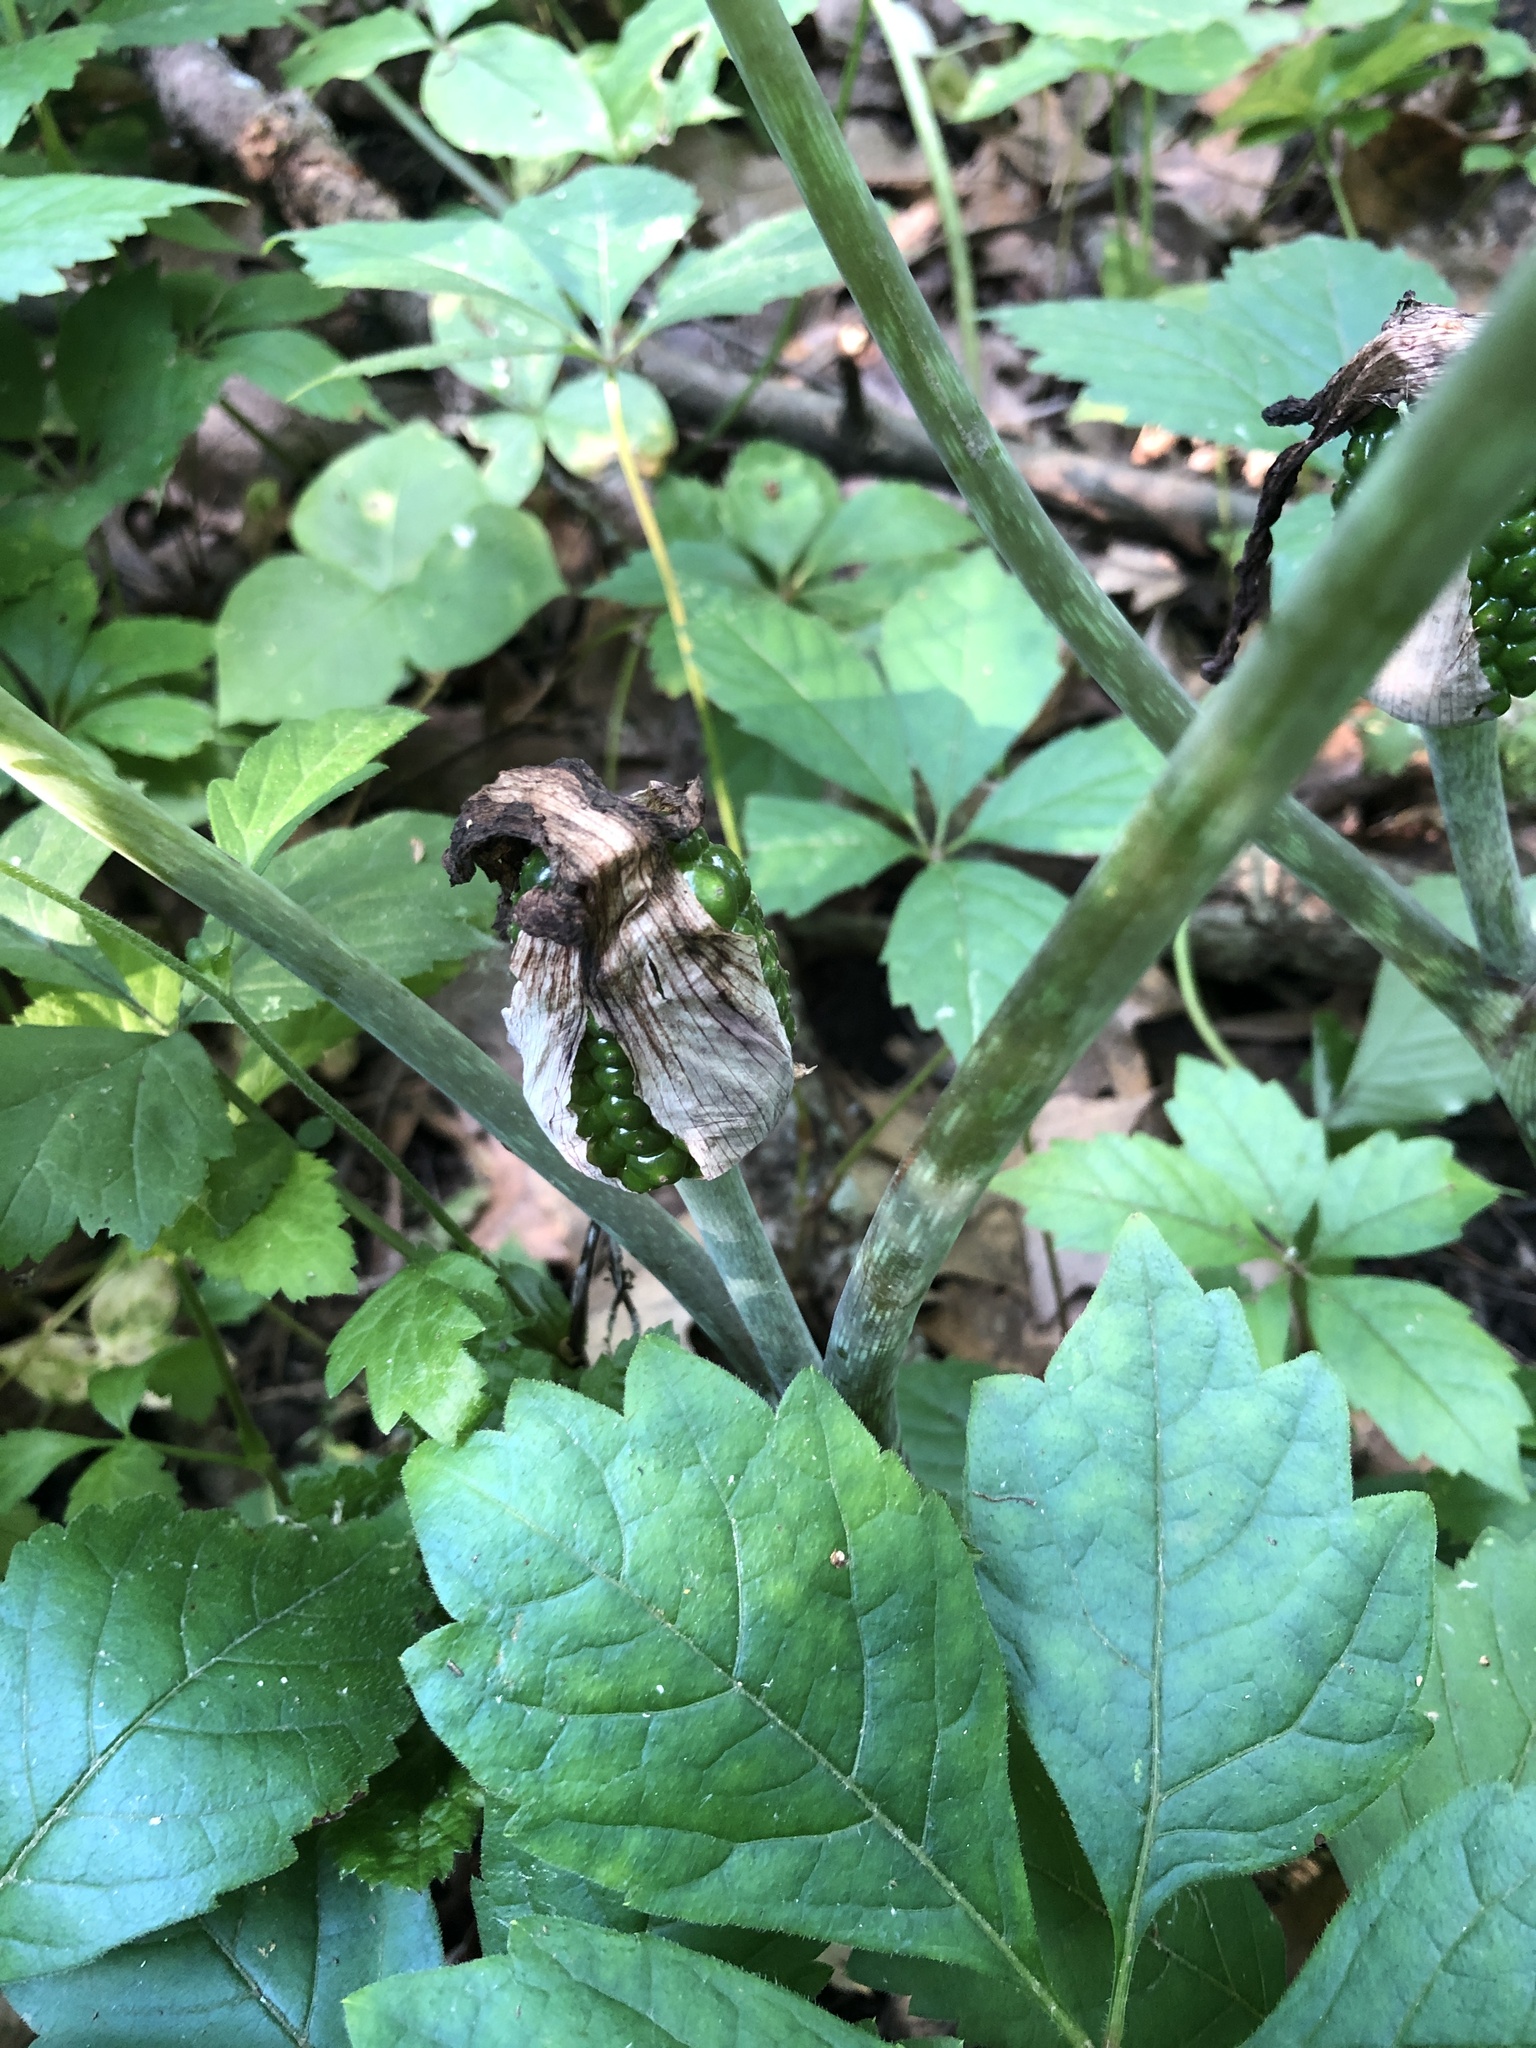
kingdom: Plantae
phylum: Tracheophyta
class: Liliopsida
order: Alismatales
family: Araceae
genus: Arisaema
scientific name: Arisaema triphyllum
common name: Jack-in-the-pulpit
